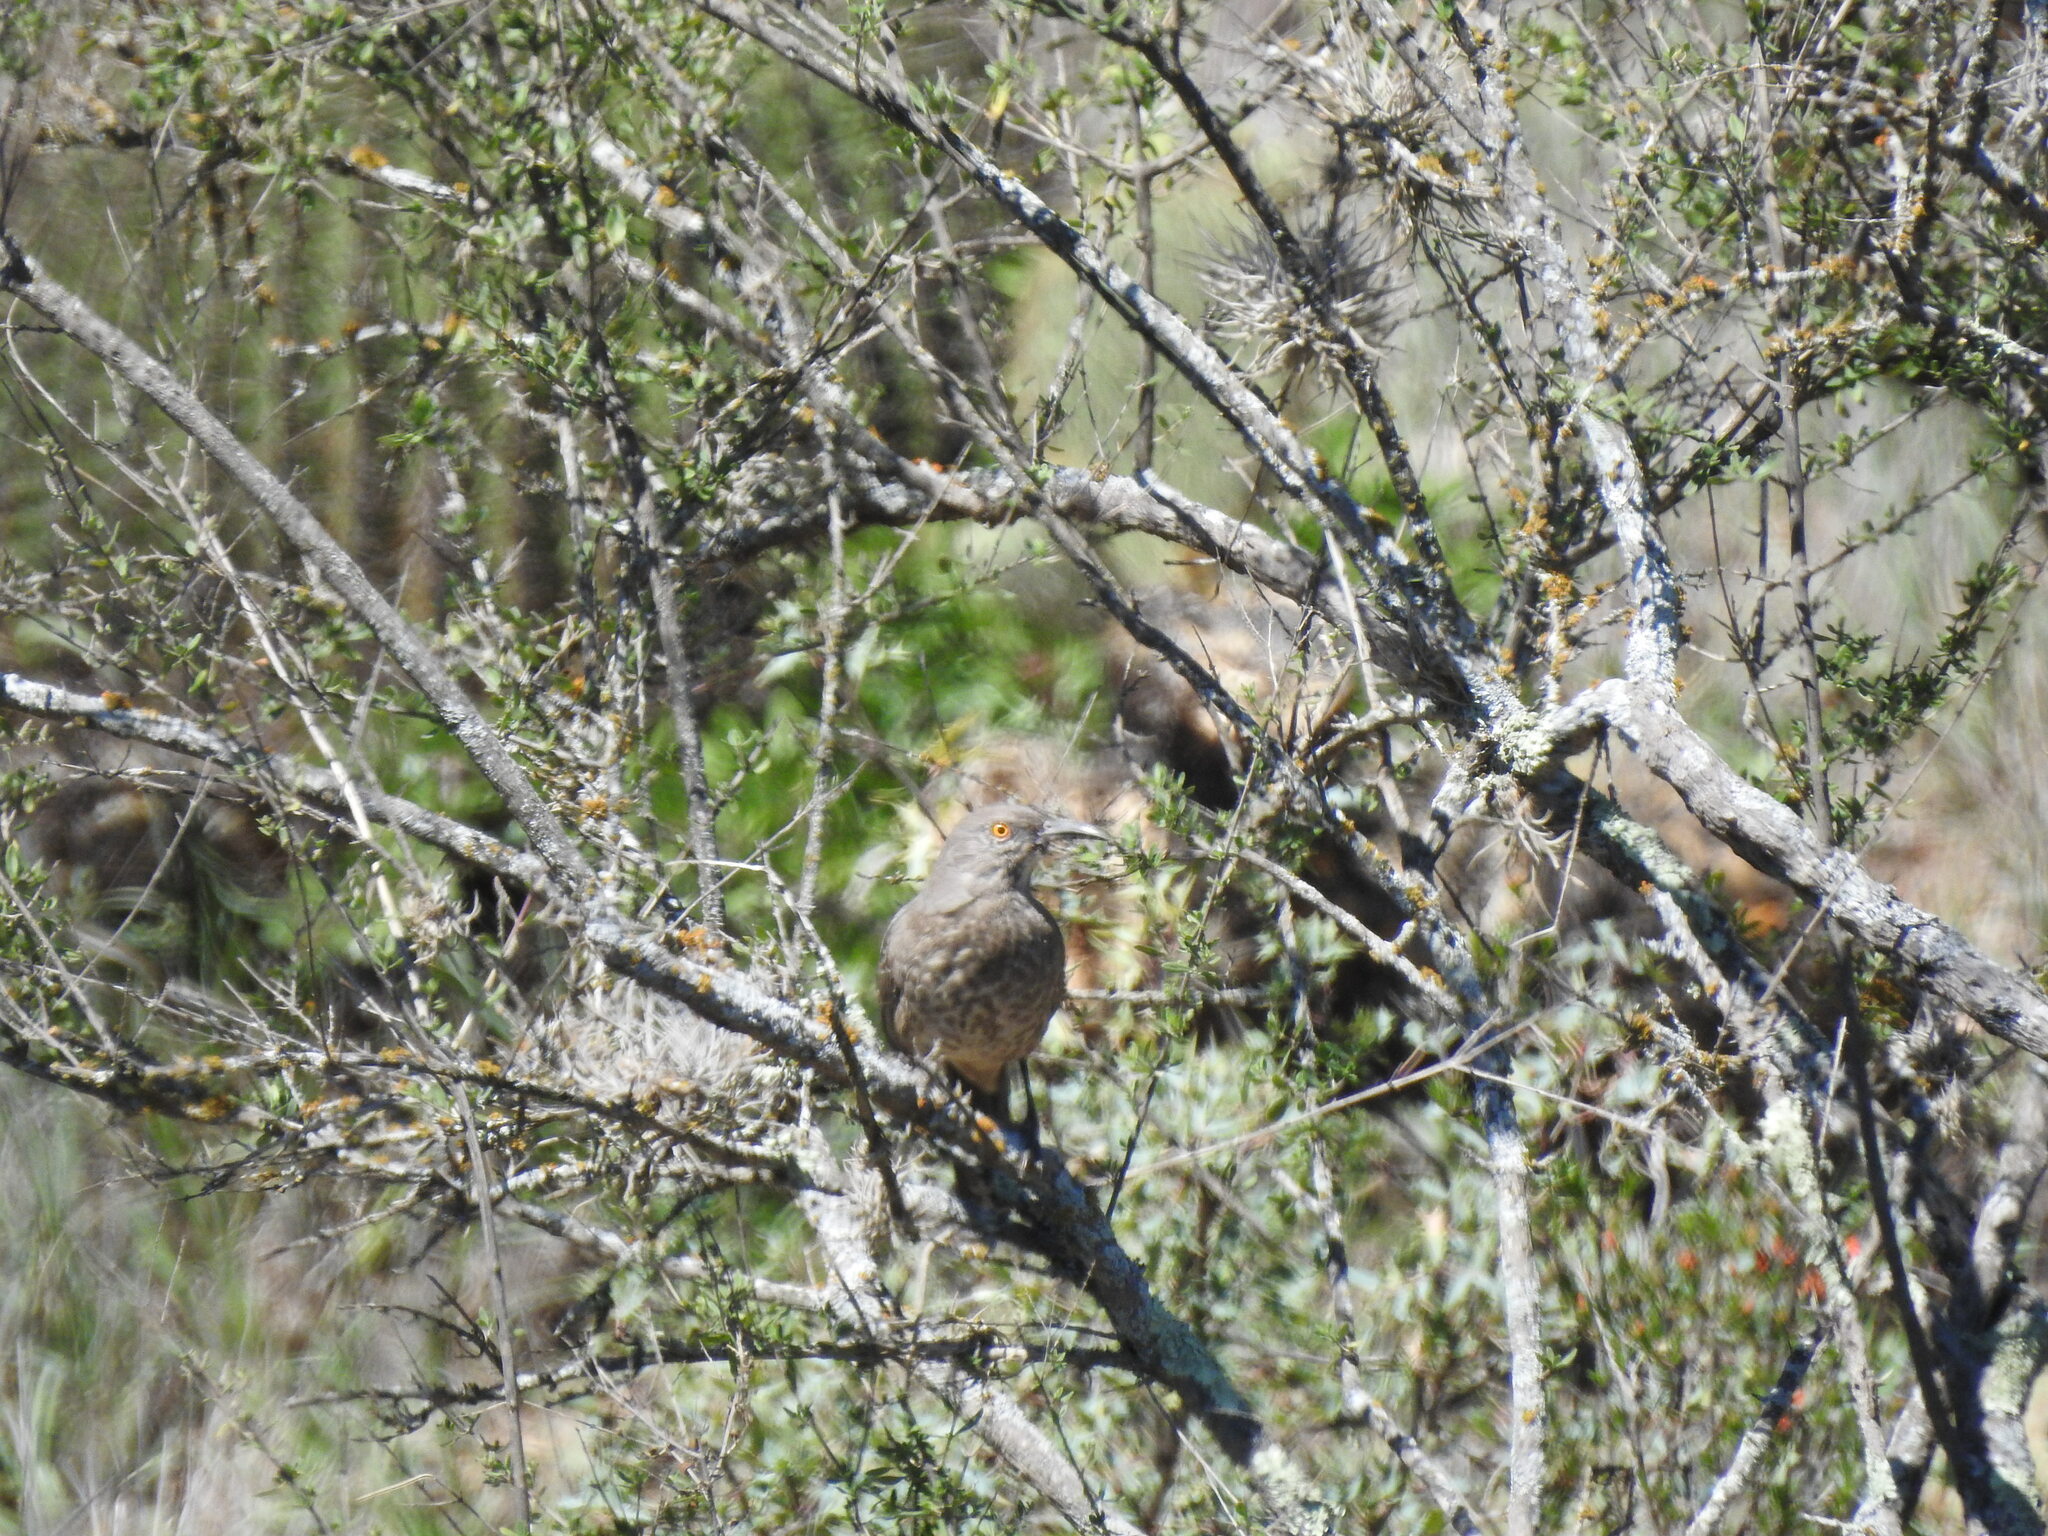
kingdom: Animalia
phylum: Chordata
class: Aves
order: Passeriformes
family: Mimidae
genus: Toxostoma
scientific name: Toxostoma curvirostre
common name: Curve-billed thrasher
